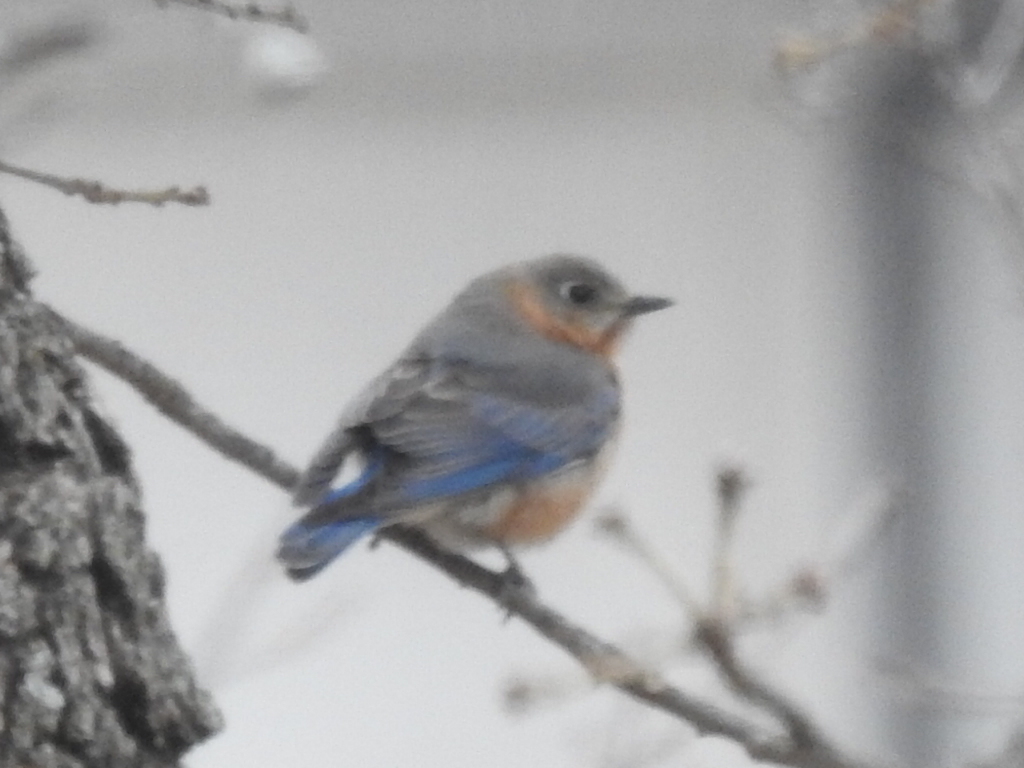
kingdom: Animalia
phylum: Chordata
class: Aves
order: Passeriformes
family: Turdidae
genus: Sialia
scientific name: Sialia sialis
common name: Eastern bluebird
